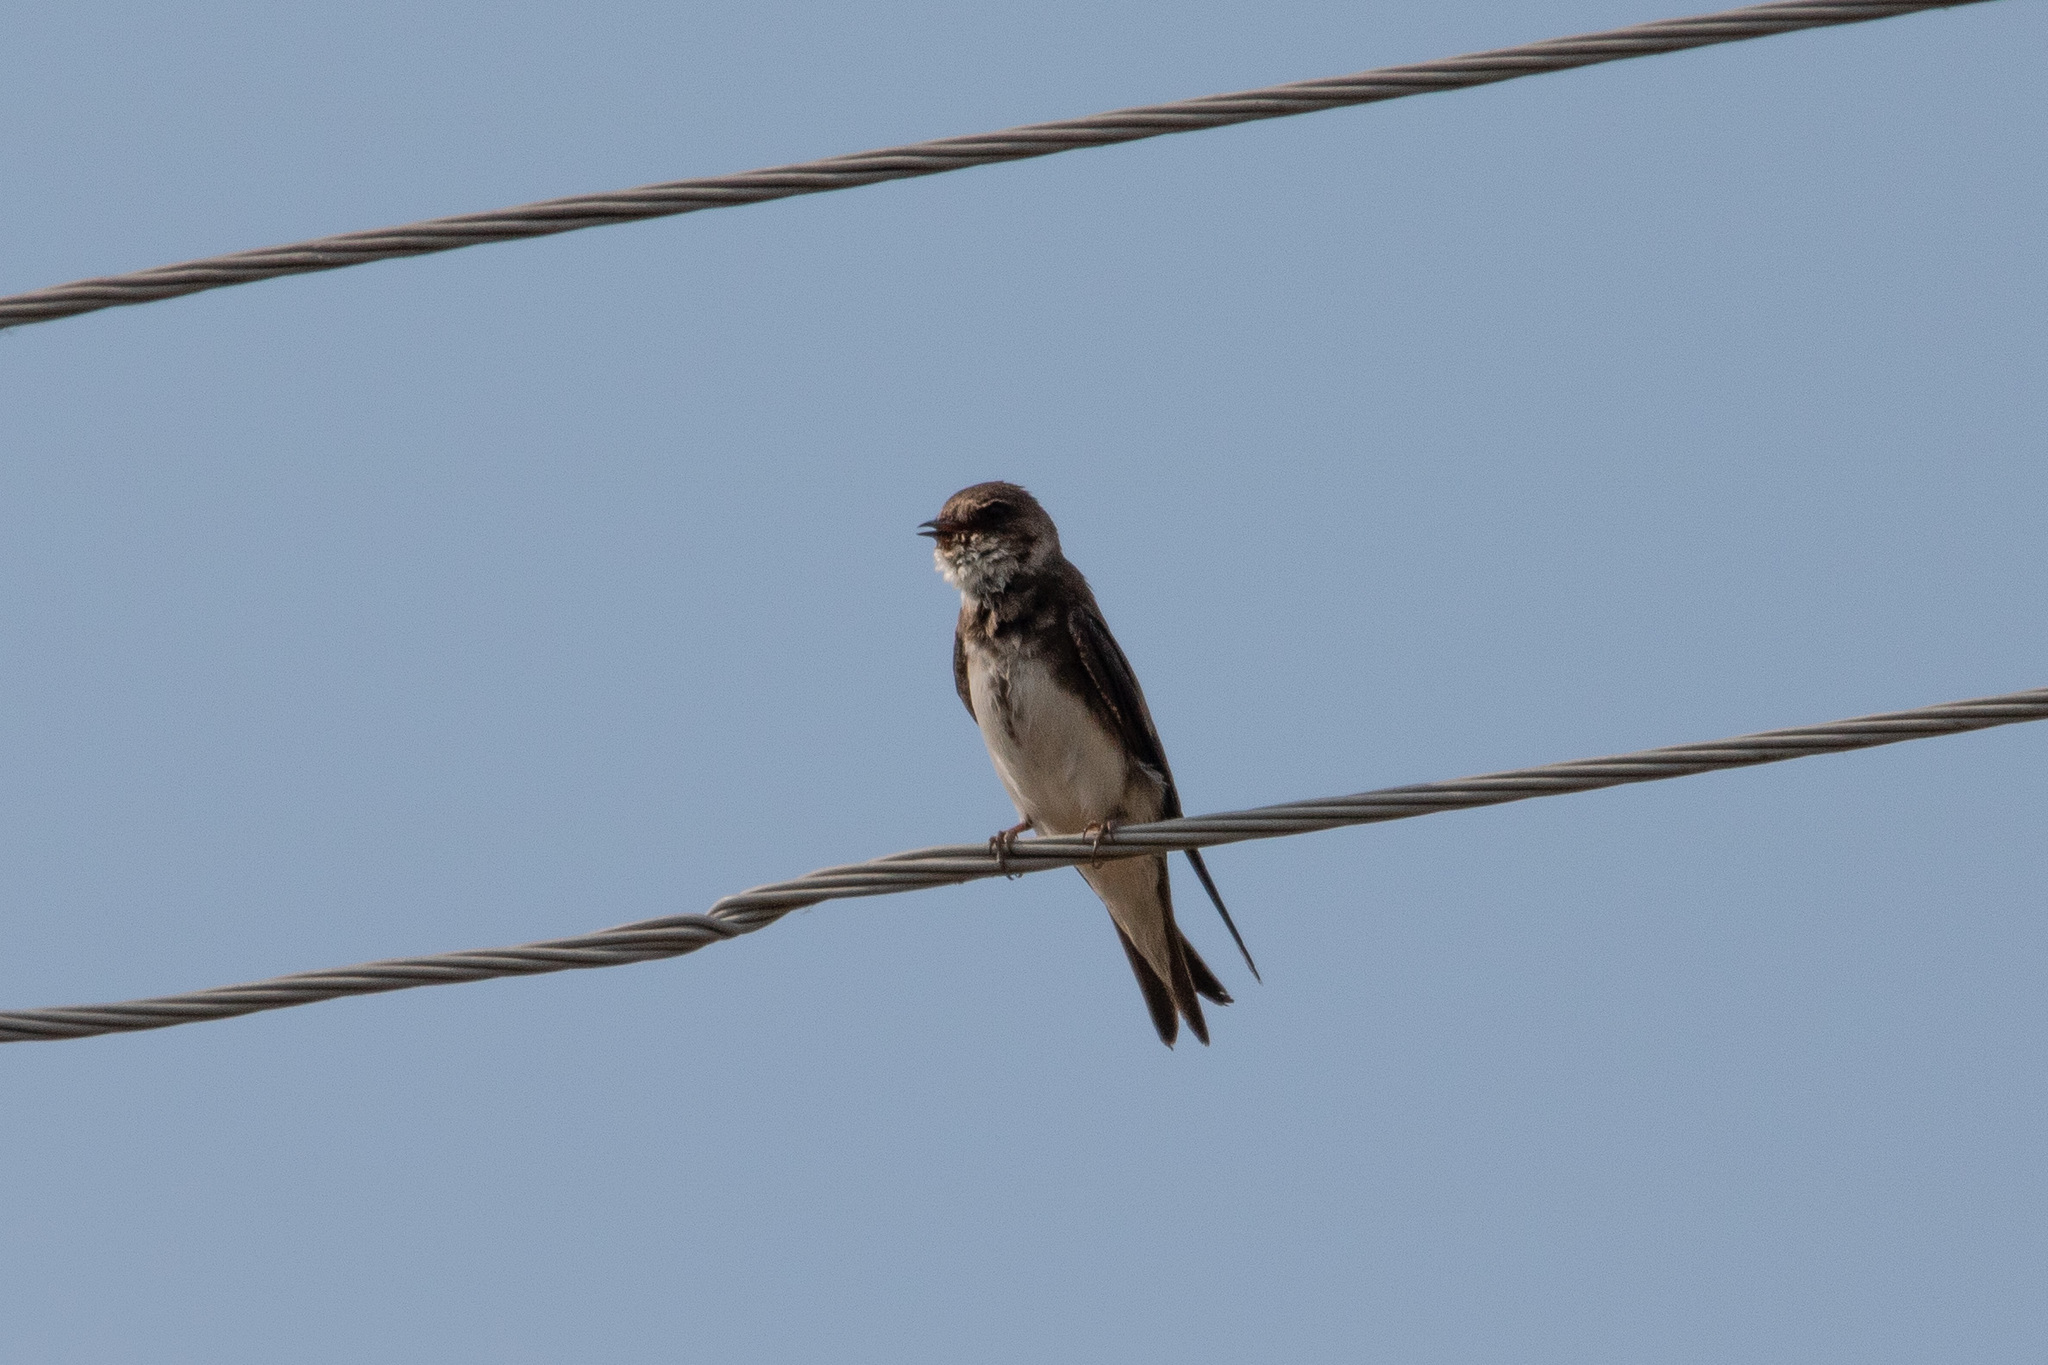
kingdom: Animalia
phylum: Chordata
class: Aves
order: Passeriformes
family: Hirundinidae
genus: Riparia
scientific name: Riparia riparia
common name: Sand martin
